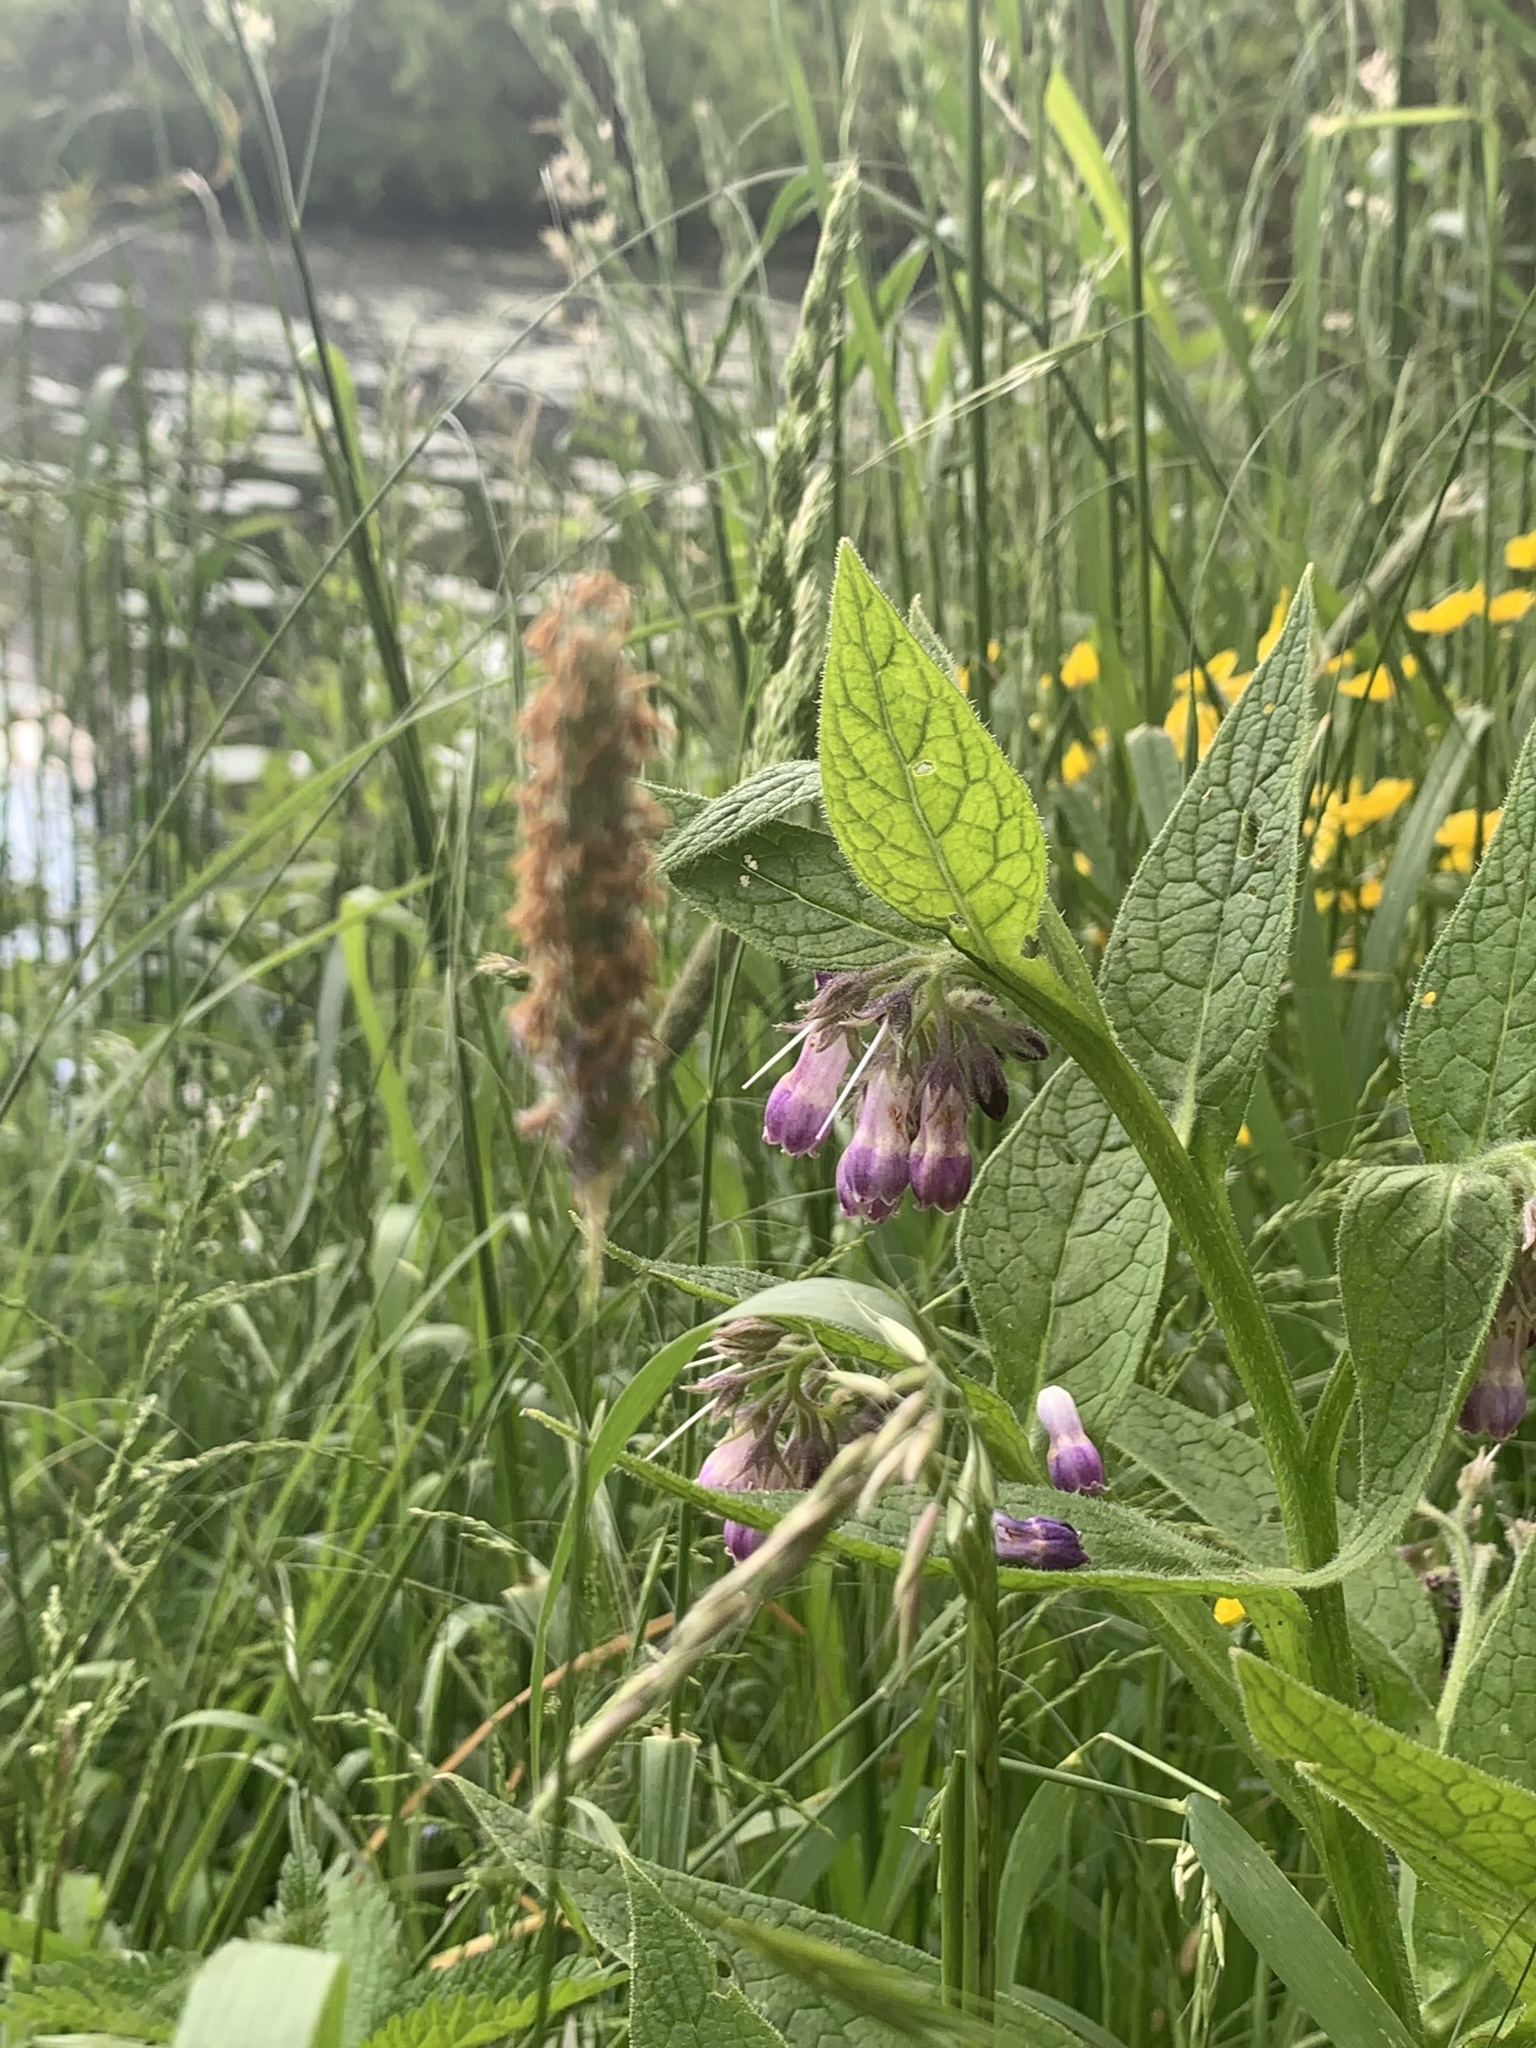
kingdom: Plantae
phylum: Tracheophyta
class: Magnoliopsida
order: Boraginales
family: Boraginaceae
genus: Symphytum
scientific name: Symphytum officinale
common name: Common comfrey
